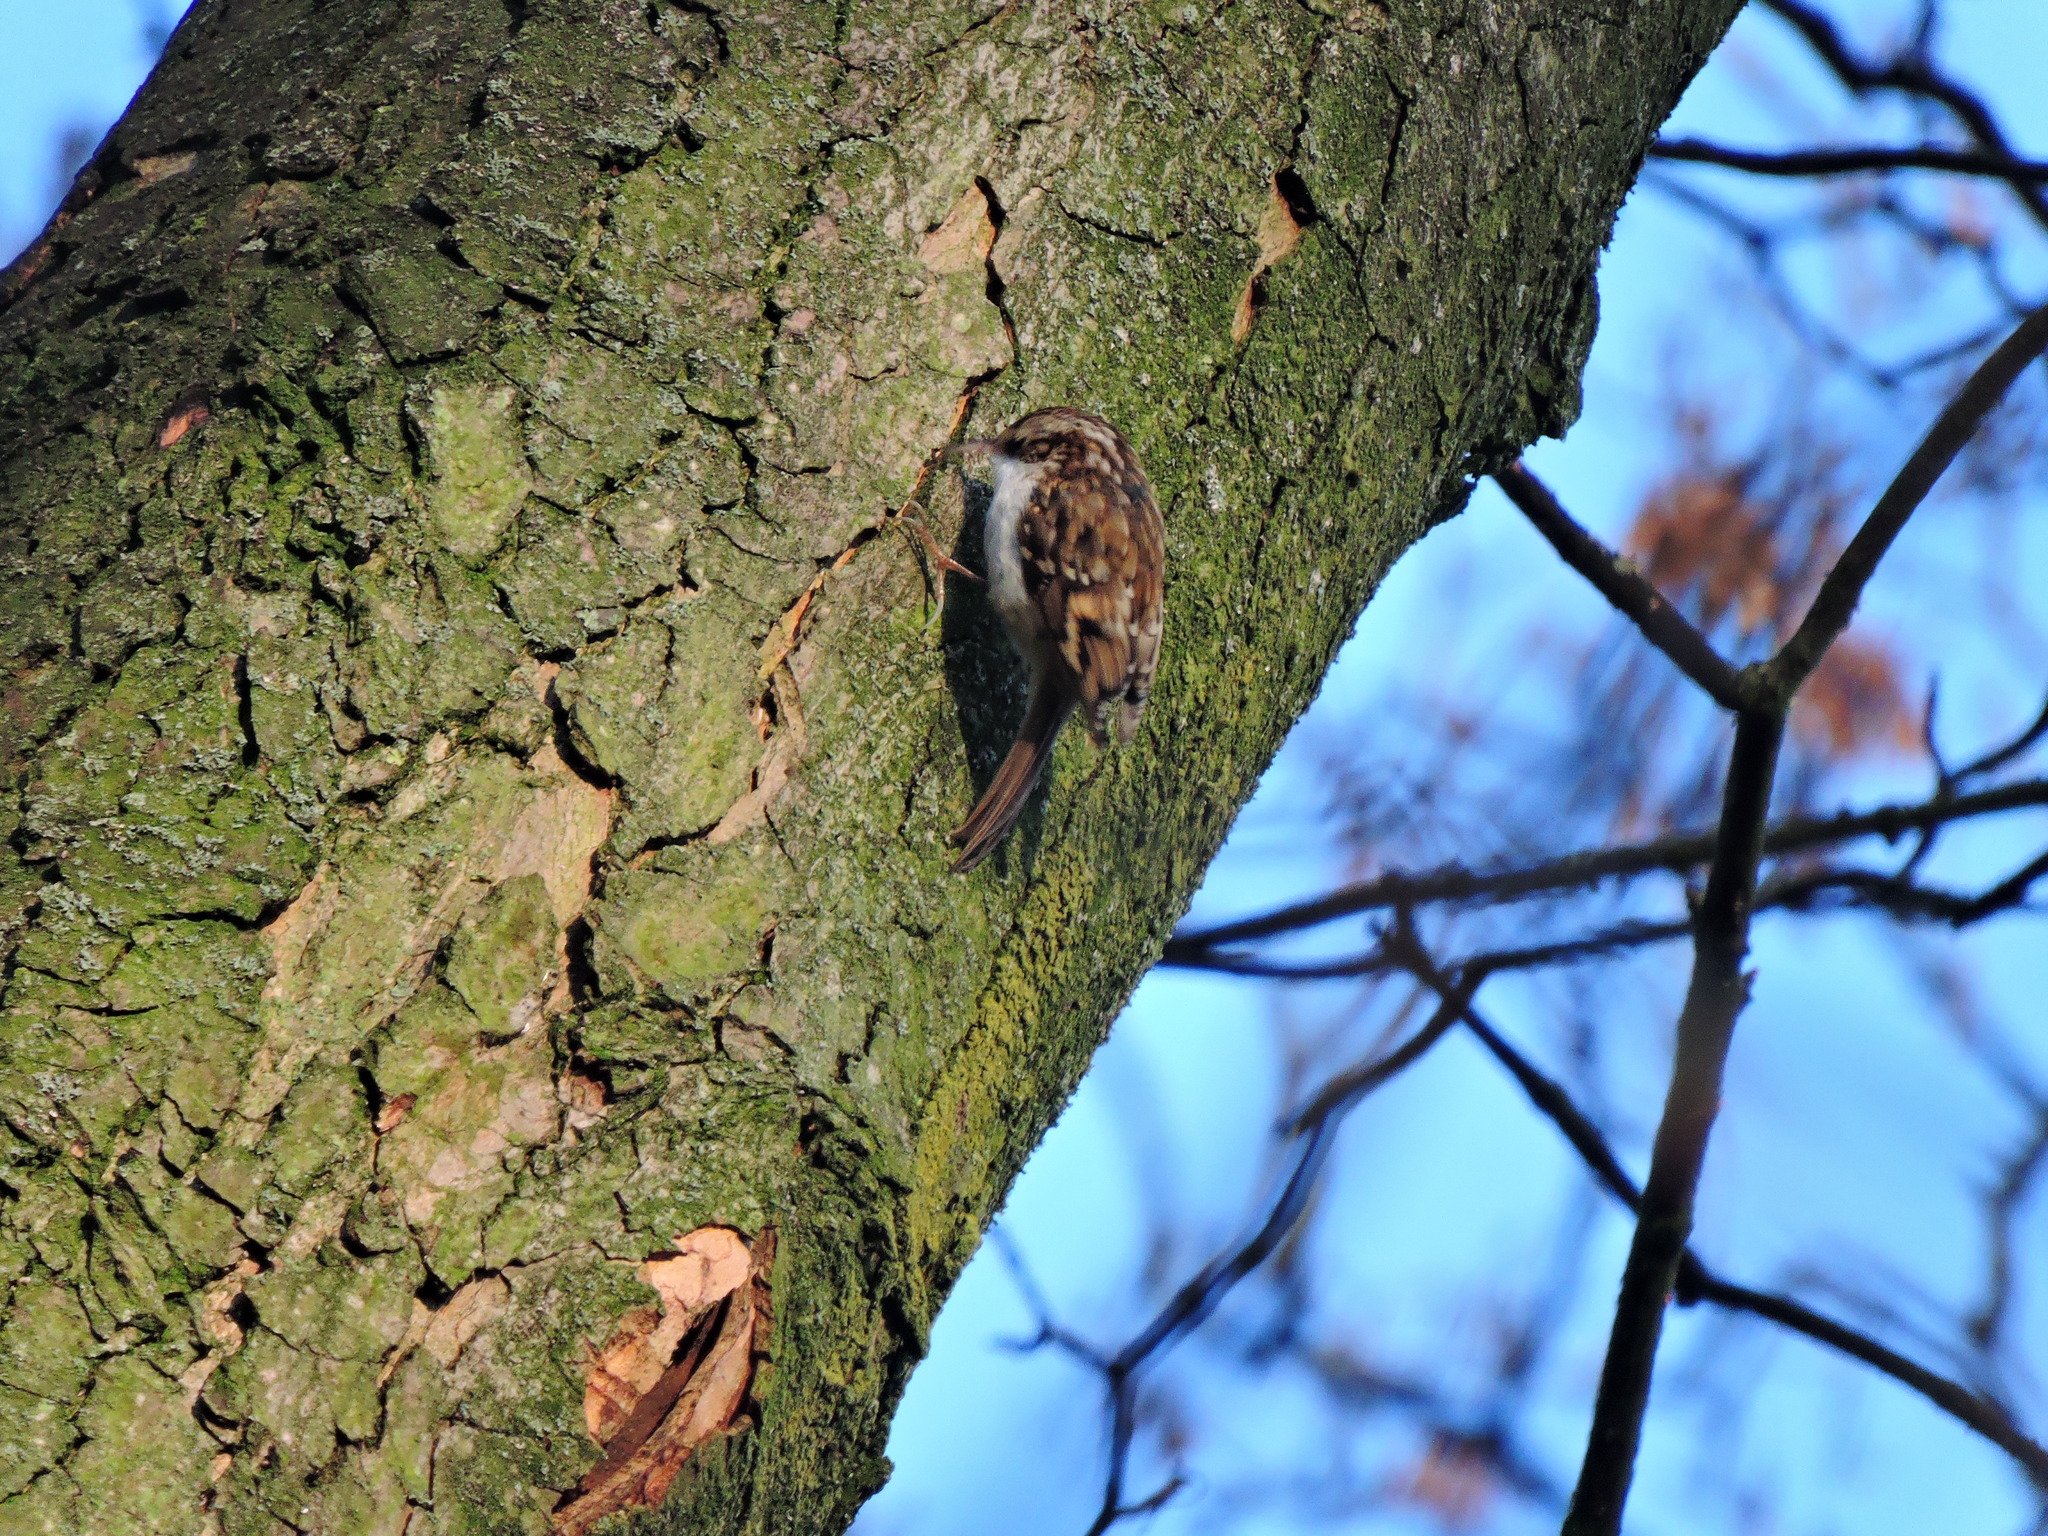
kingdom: Animalia
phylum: Chordata
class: Aves
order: Passeriformes
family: Certhiidae
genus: Certhia
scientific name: Certhia familiaris
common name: Eurasian treecreeper
